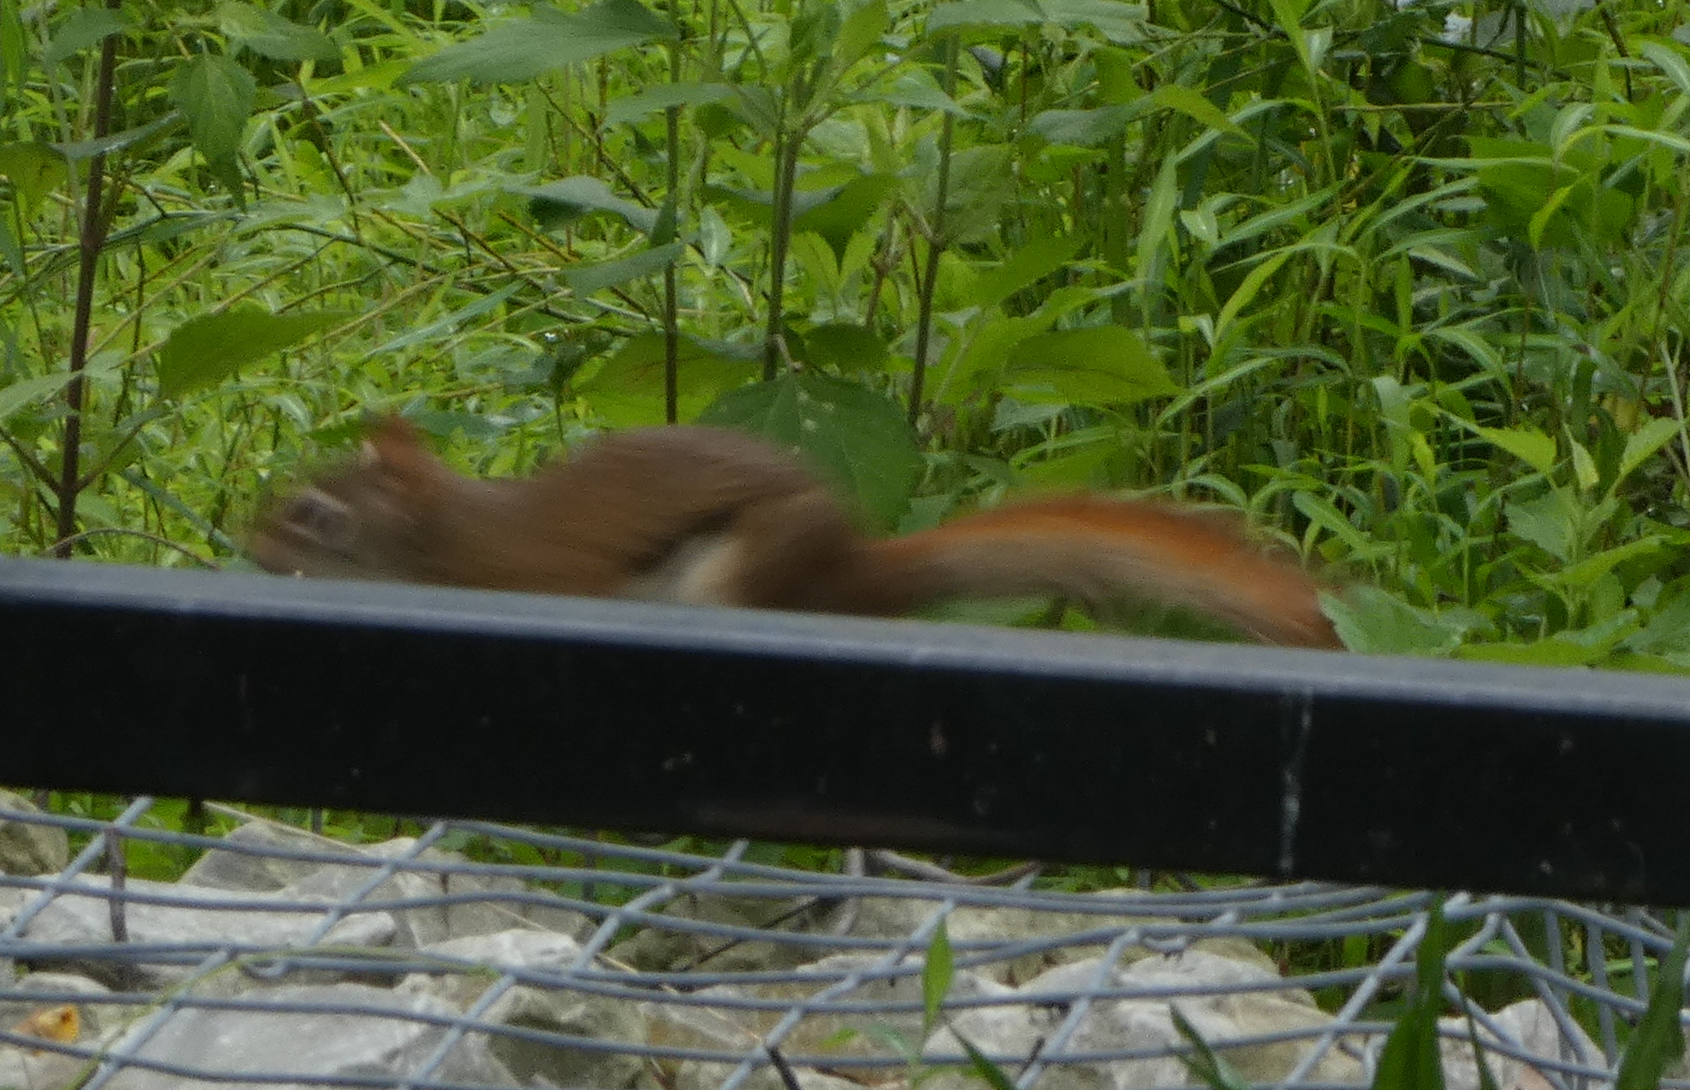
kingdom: Animalia
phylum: Chordata
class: Mammalia
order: Rodentia
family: Sciuridae
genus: Tamiasciurus
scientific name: Tamiasciurus hudsonicus
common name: Red squirrel
